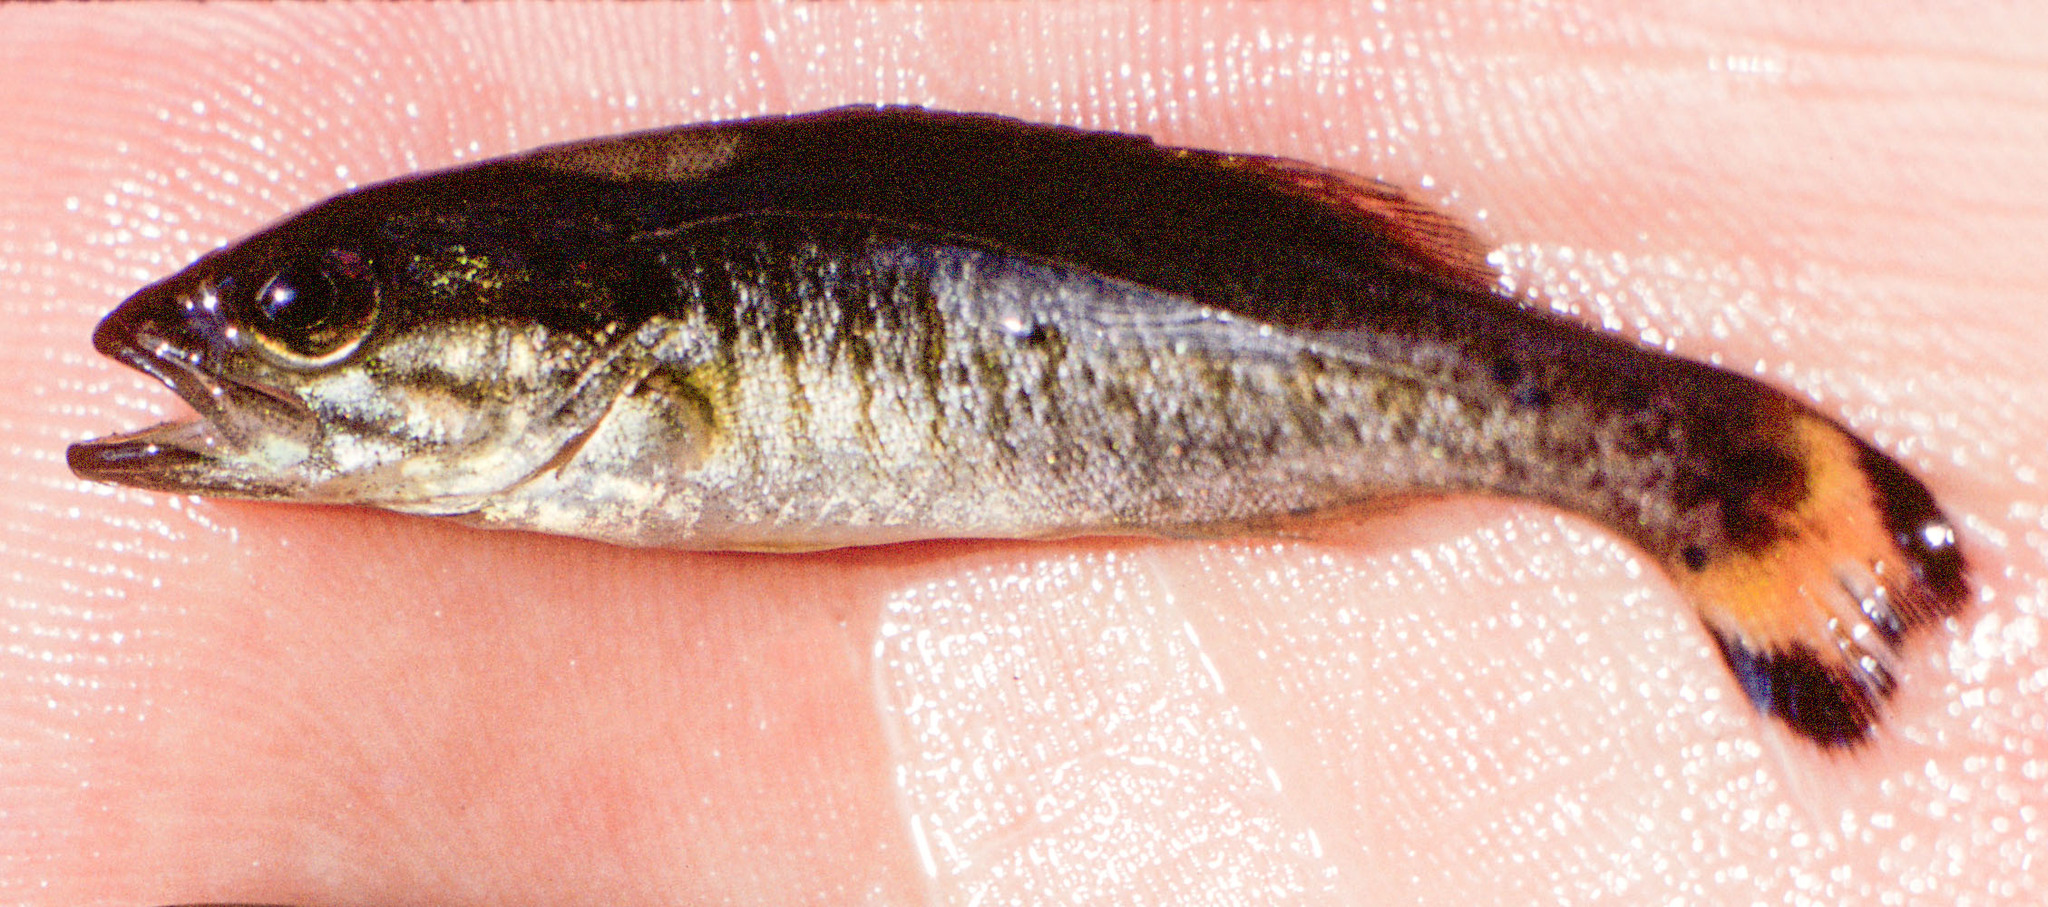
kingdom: Animalia
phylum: Chordata
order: Perciformes
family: Centrarchidae
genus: Micropterus
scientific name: Micropterus dolomieu
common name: Smallmouth bass
